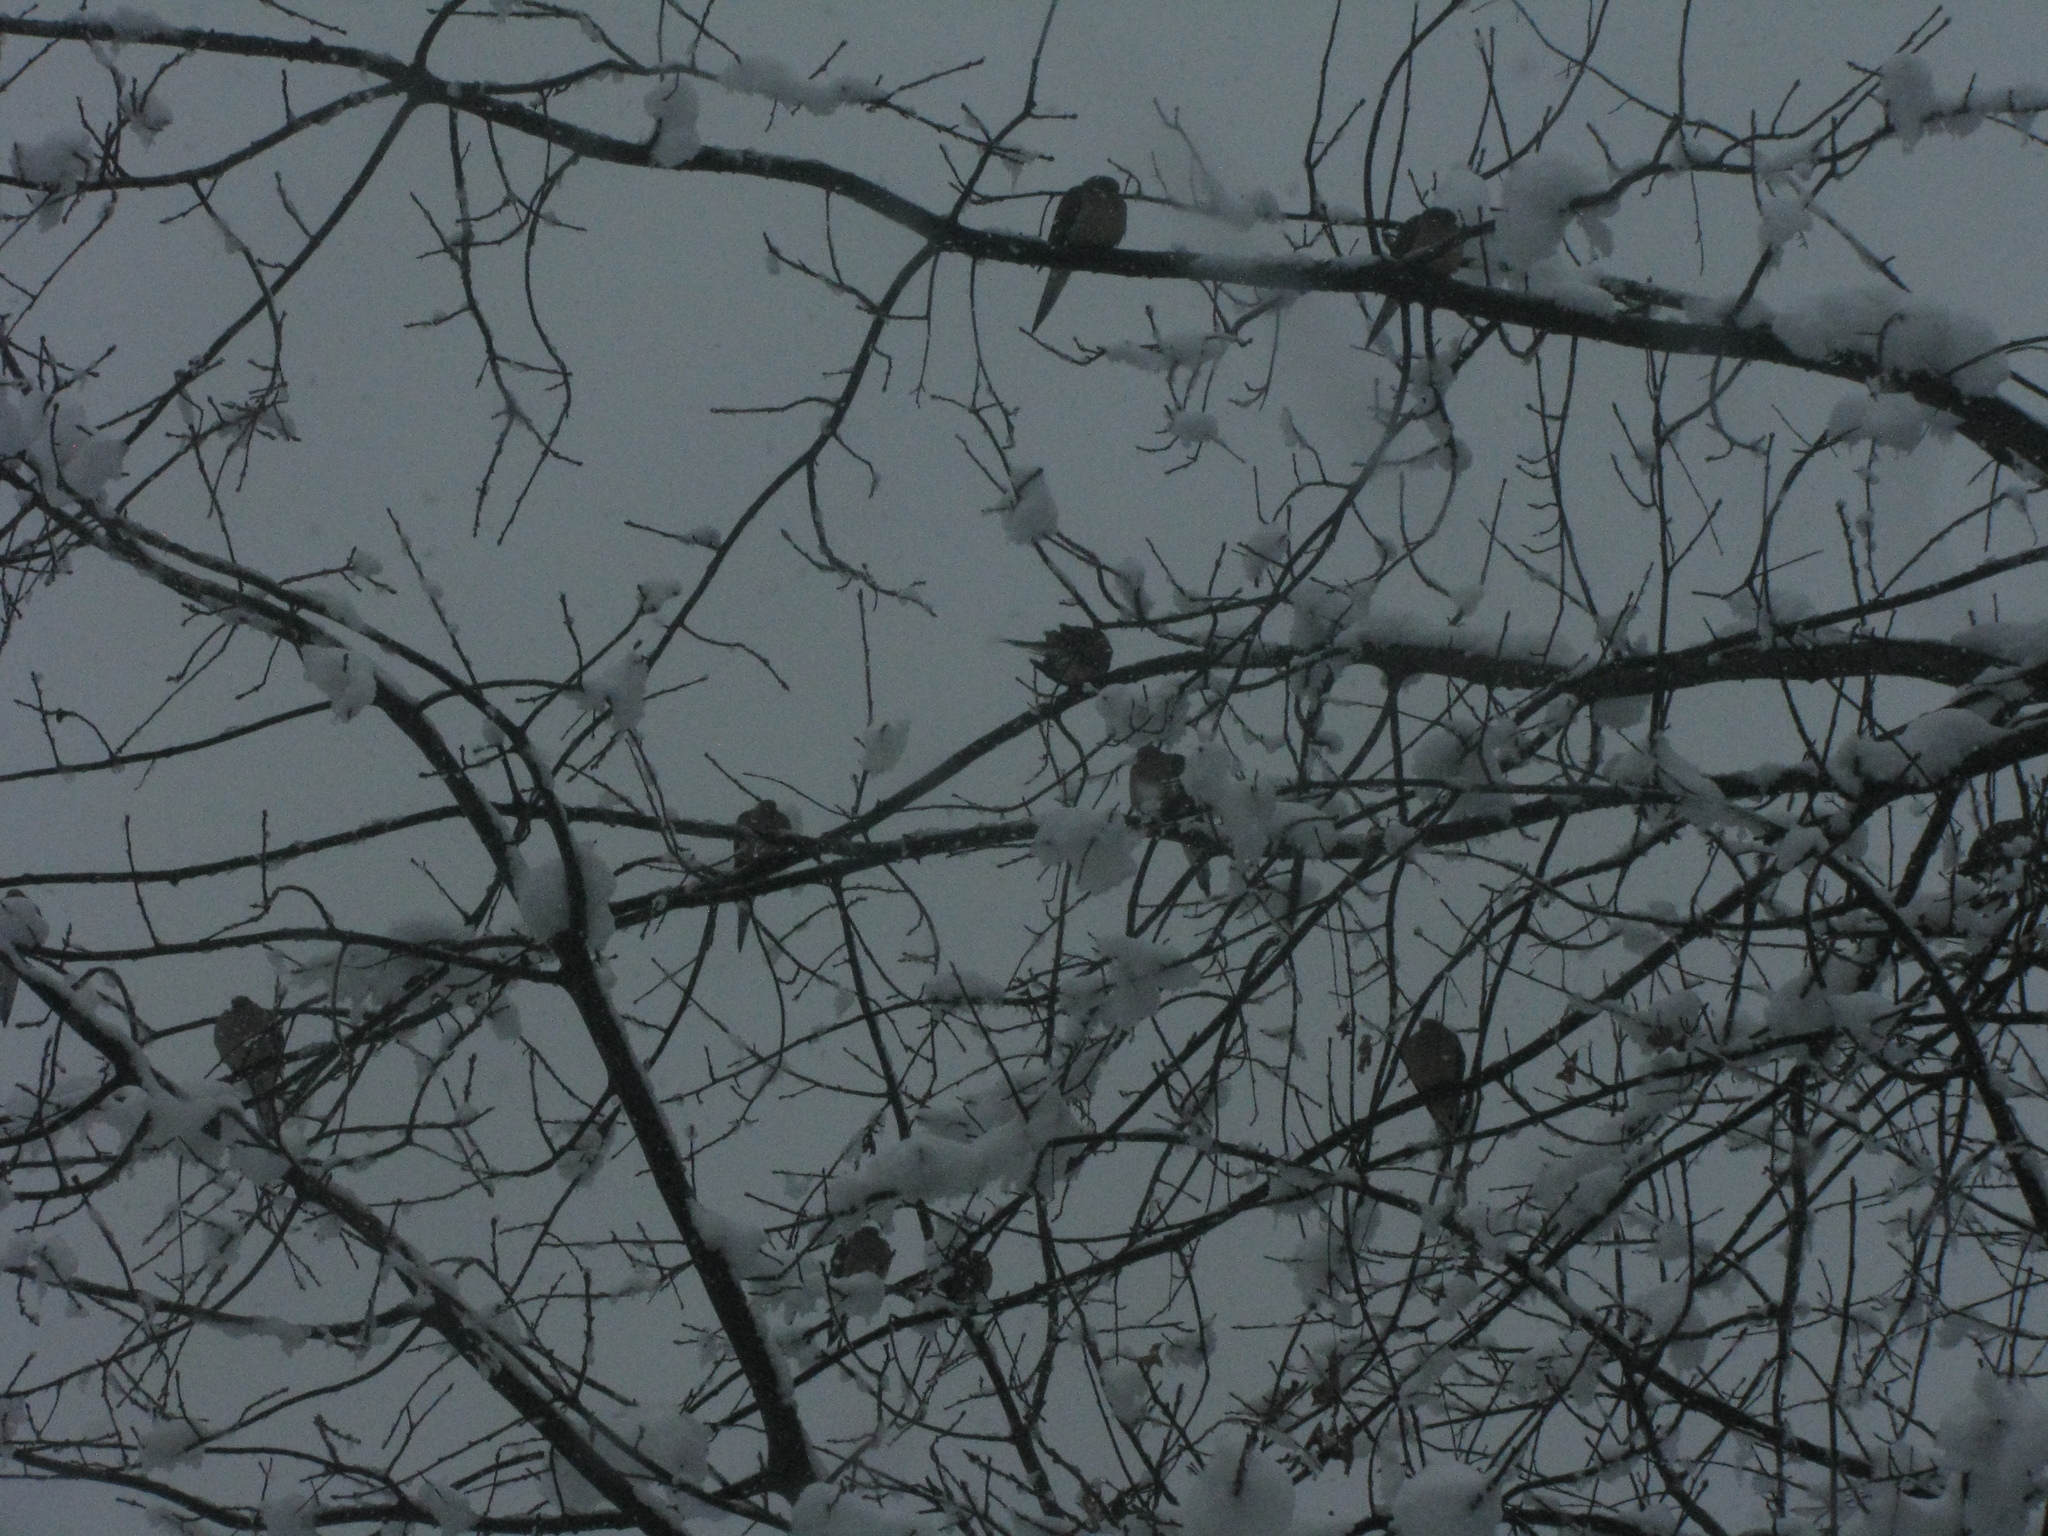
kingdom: Animalia
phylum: Chordata
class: Aves
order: Columbiformes
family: Columbidae
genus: Zenaida
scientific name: Zenaida macroura
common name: Mourning dove
